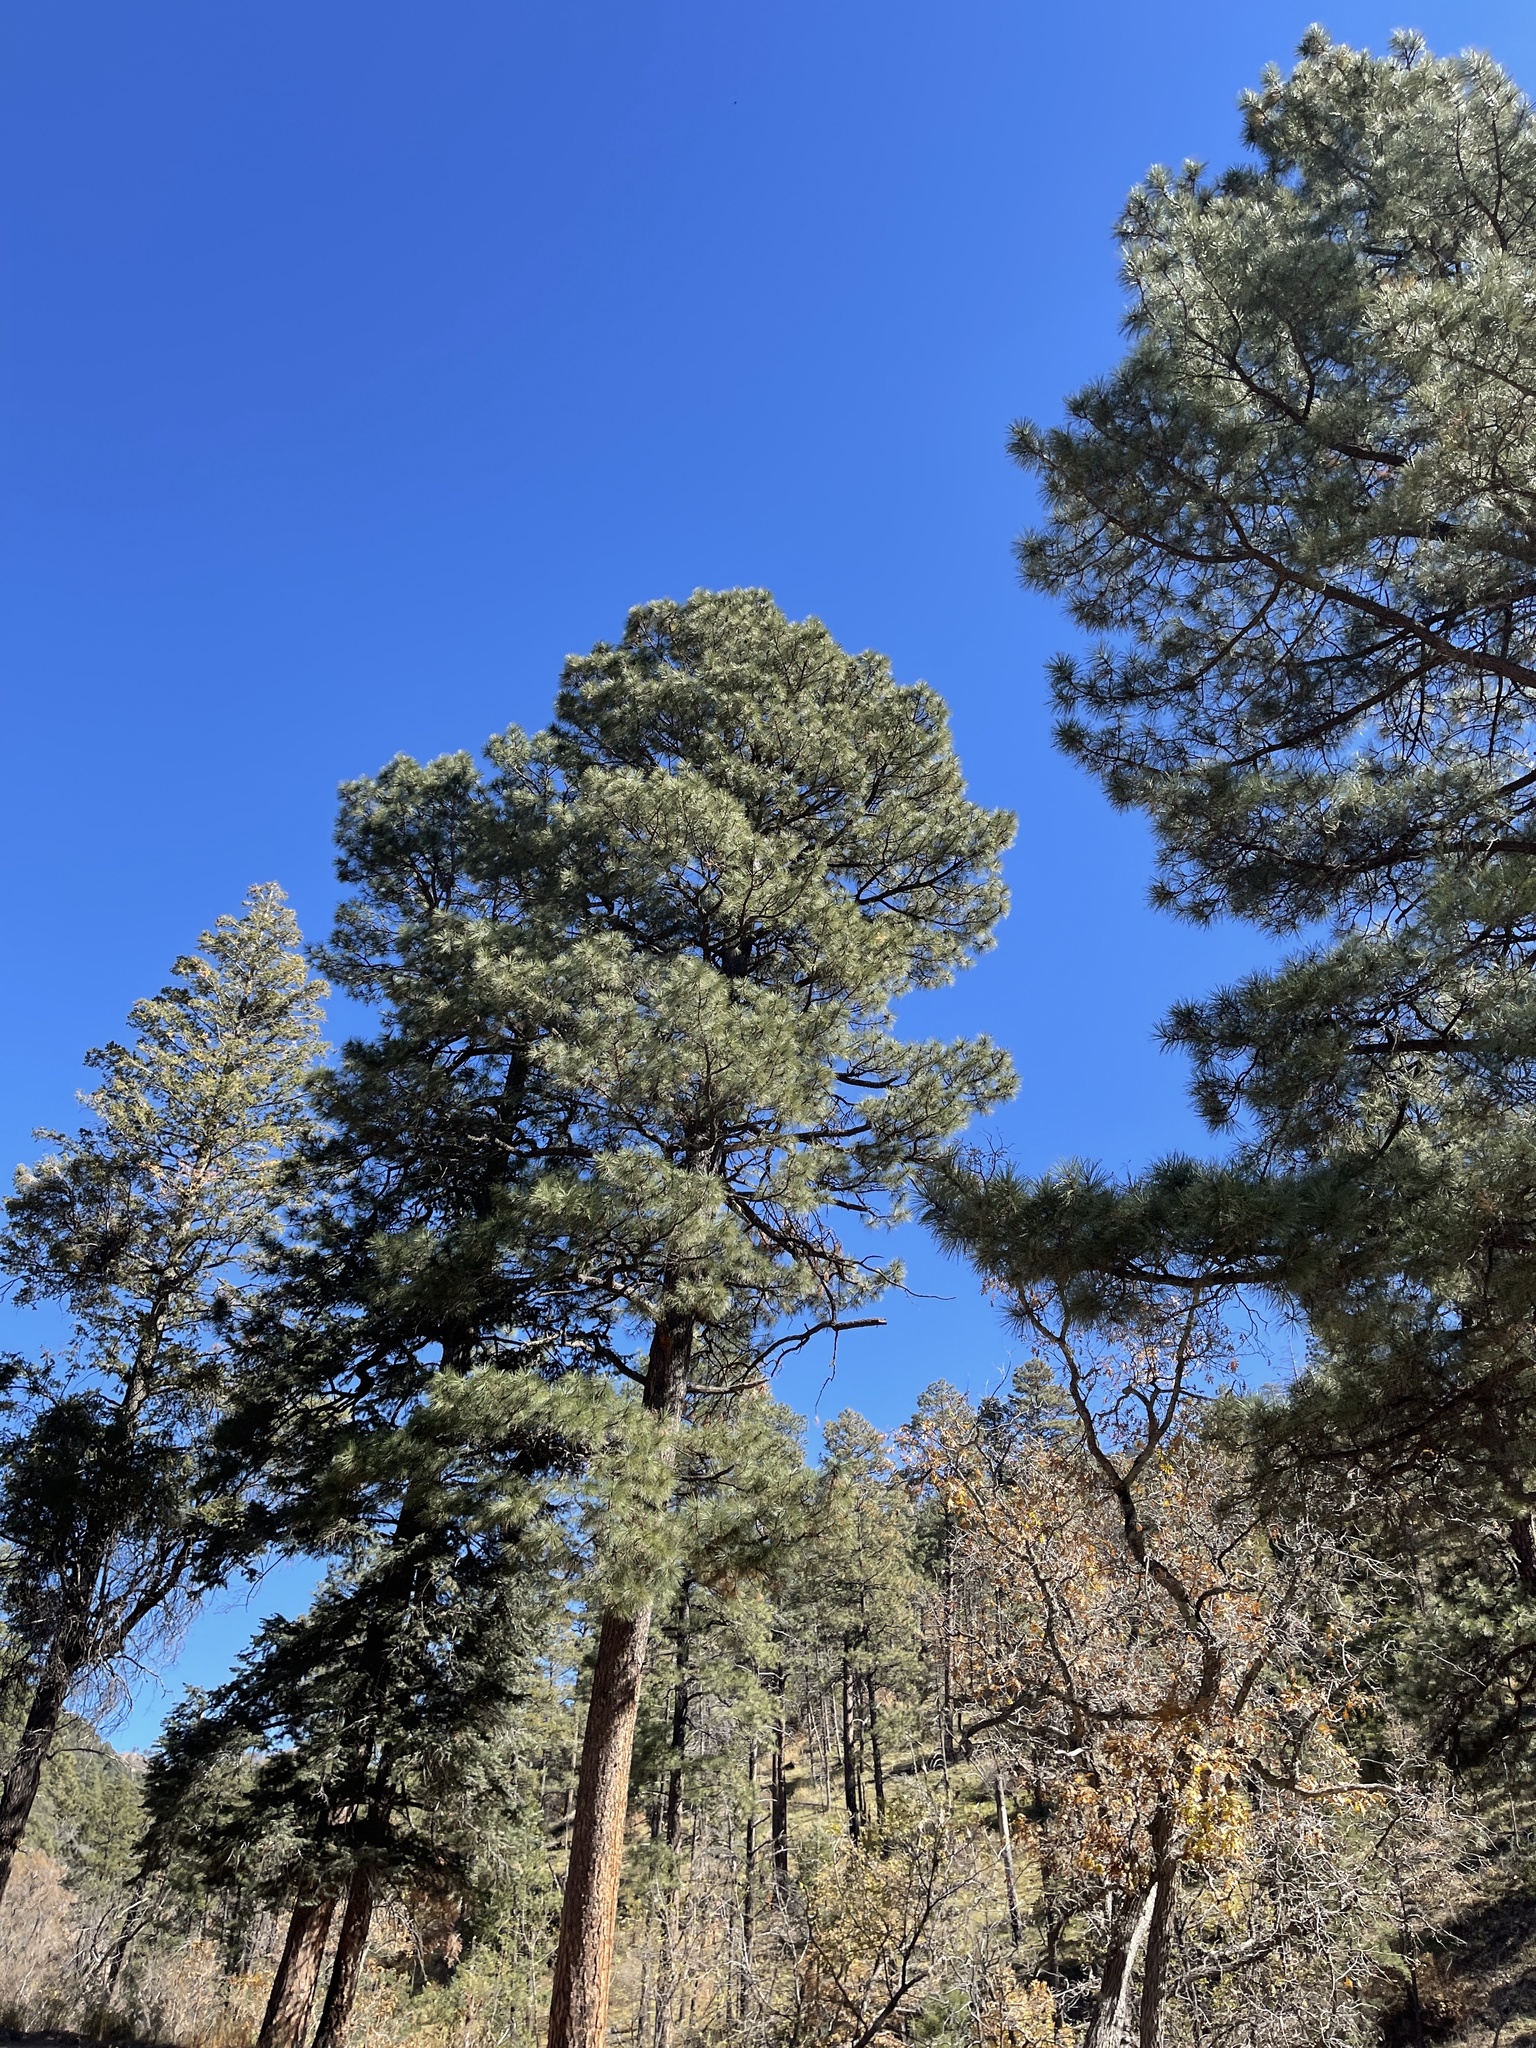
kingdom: Plantae
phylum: Tracheophyta
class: Pinopsida
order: Pinales
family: Pinaceae
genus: Pinus
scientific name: Pinus ponderosa
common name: Western yellow-pine
